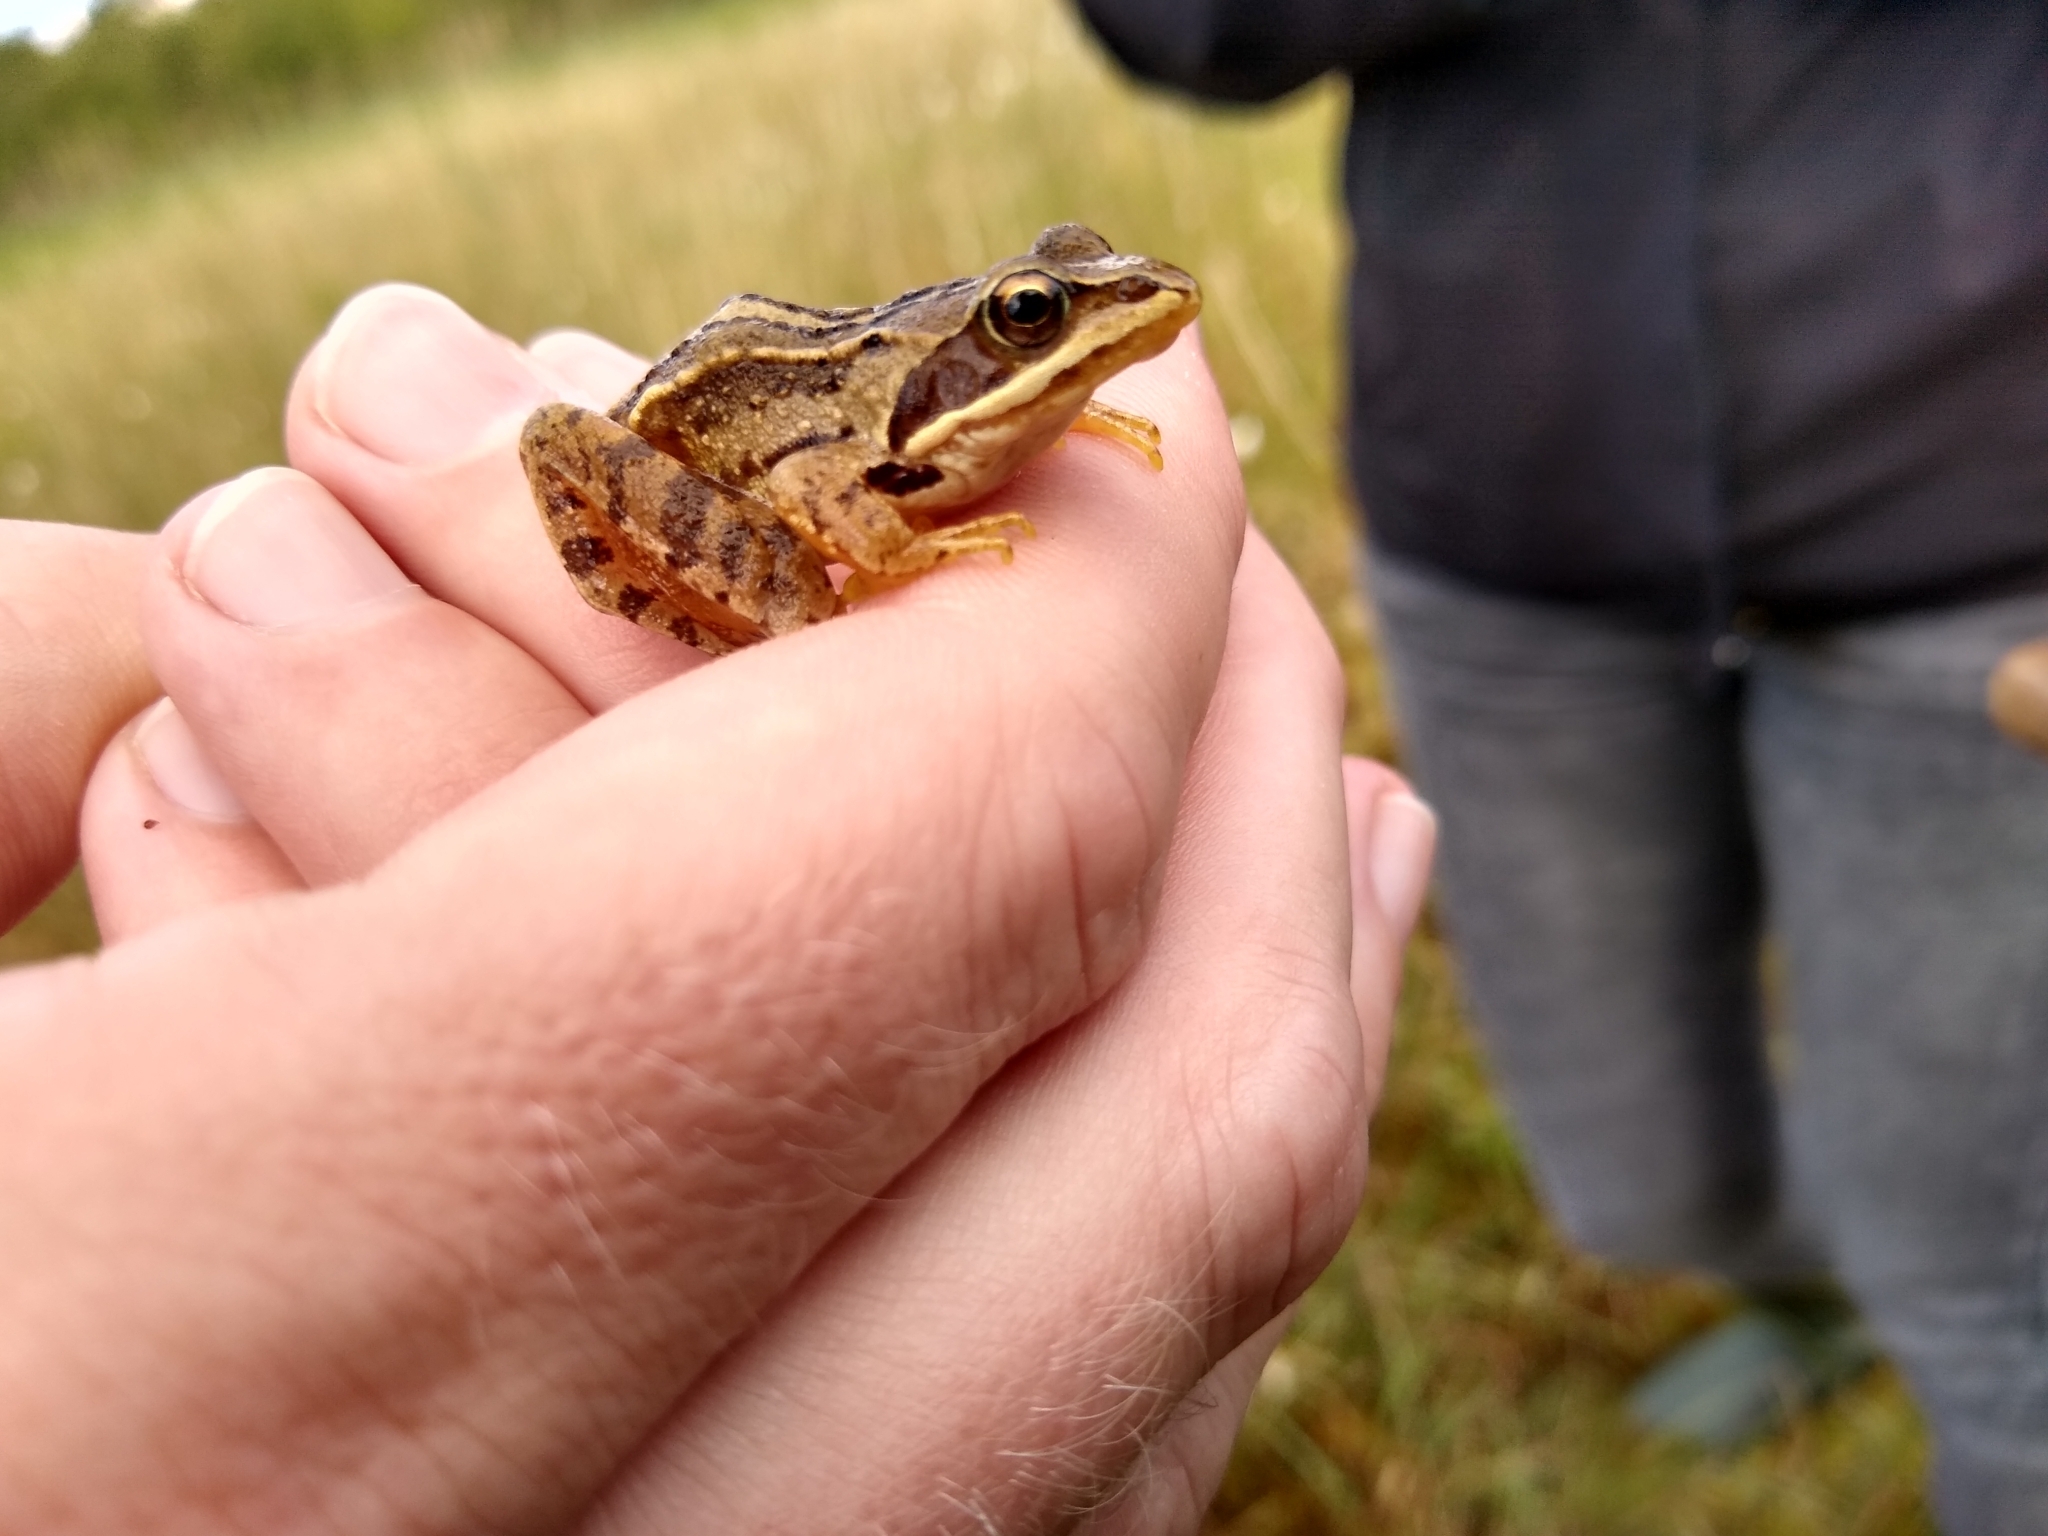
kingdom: Animalia
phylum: Chordata
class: Amphibia
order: Anura
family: Ranidae
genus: Rana
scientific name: Rana arvalis
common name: Moor frog
